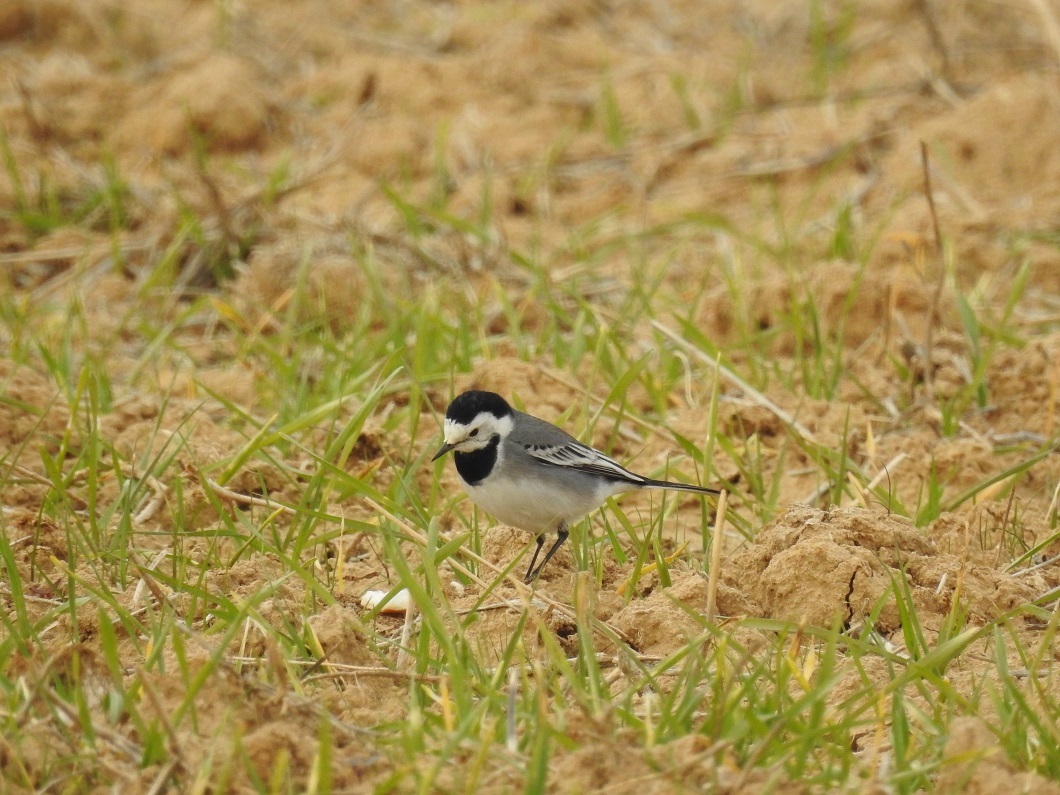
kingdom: Animalia
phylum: Chordata
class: Aves
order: Passeriformes
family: Motacillidae
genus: Motacilla
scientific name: Motacilla alba
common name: White wagtail
